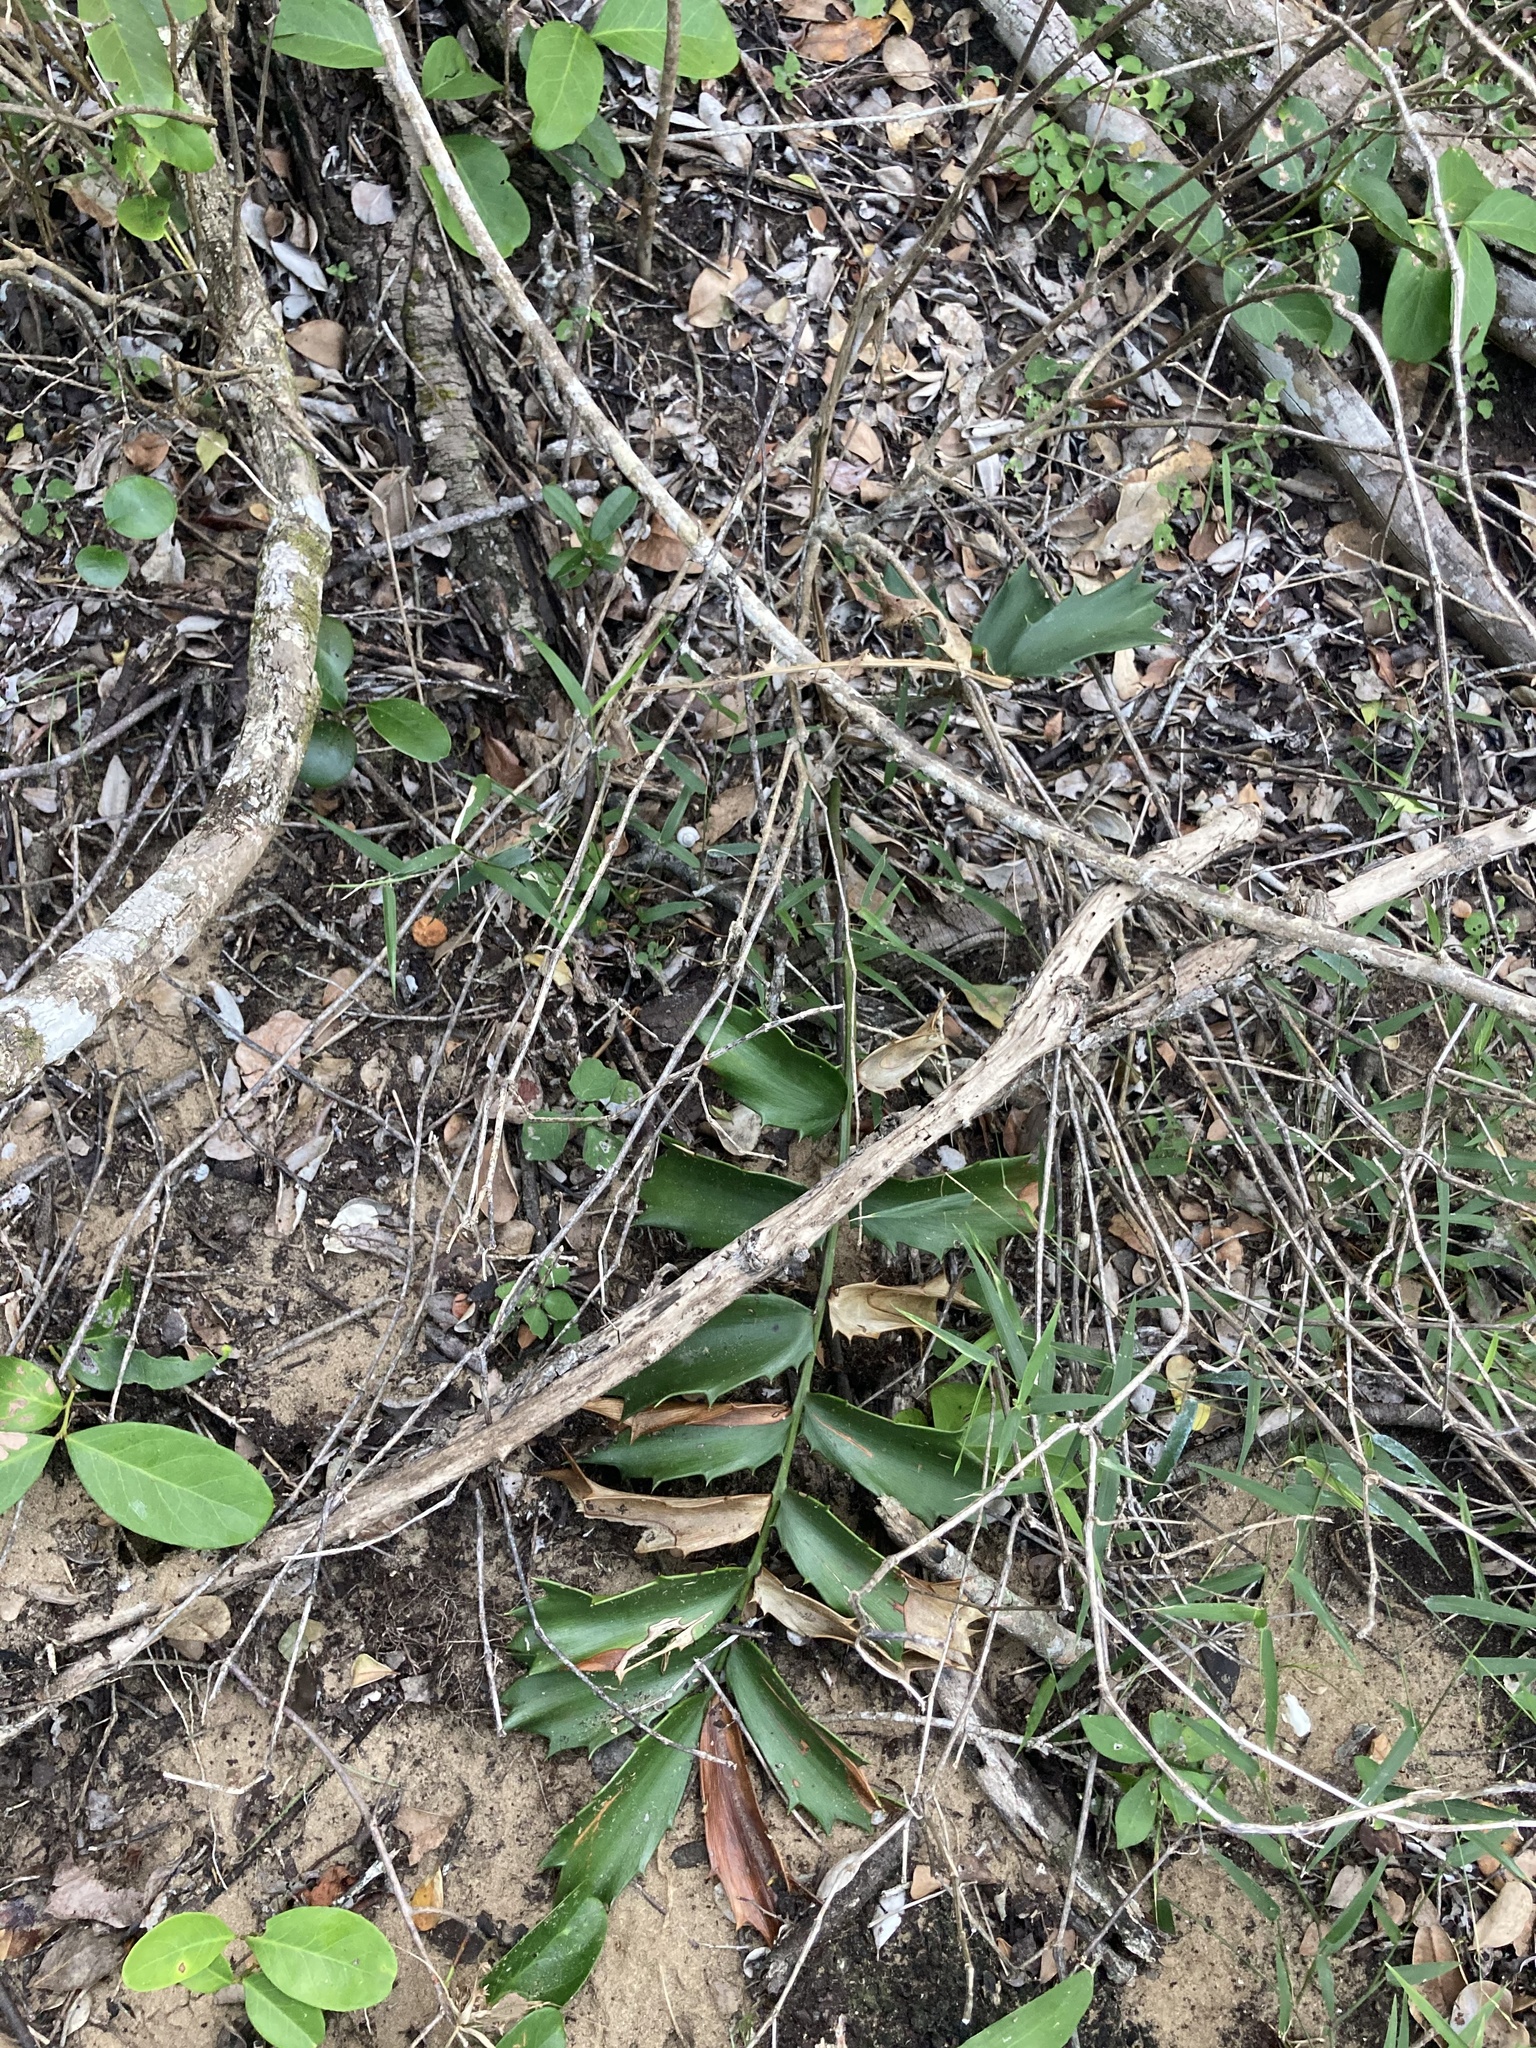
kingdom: Plantae
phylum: Tracheophyta
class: Cycadopsida
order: Cycadales
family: Zamiaceae
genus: Encephalartos
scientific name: Encephalartos ferox
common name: Kozi cycad
